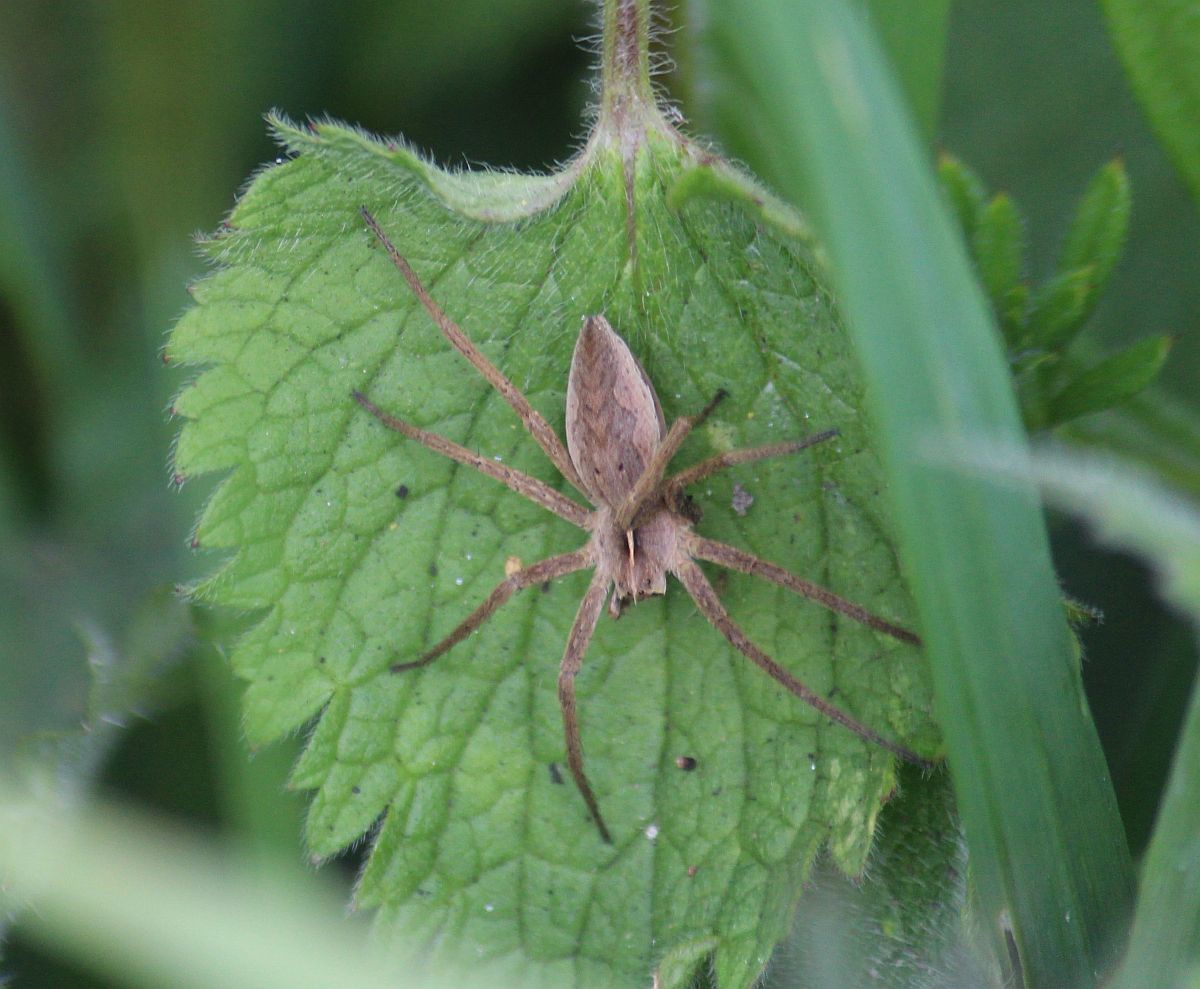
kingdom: Animalia
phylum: Arthropoda
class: Arachnida
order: Araneae
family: Pisauridae
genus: Pisaura
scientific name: Pisaura mirabilis
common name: Tent spider
